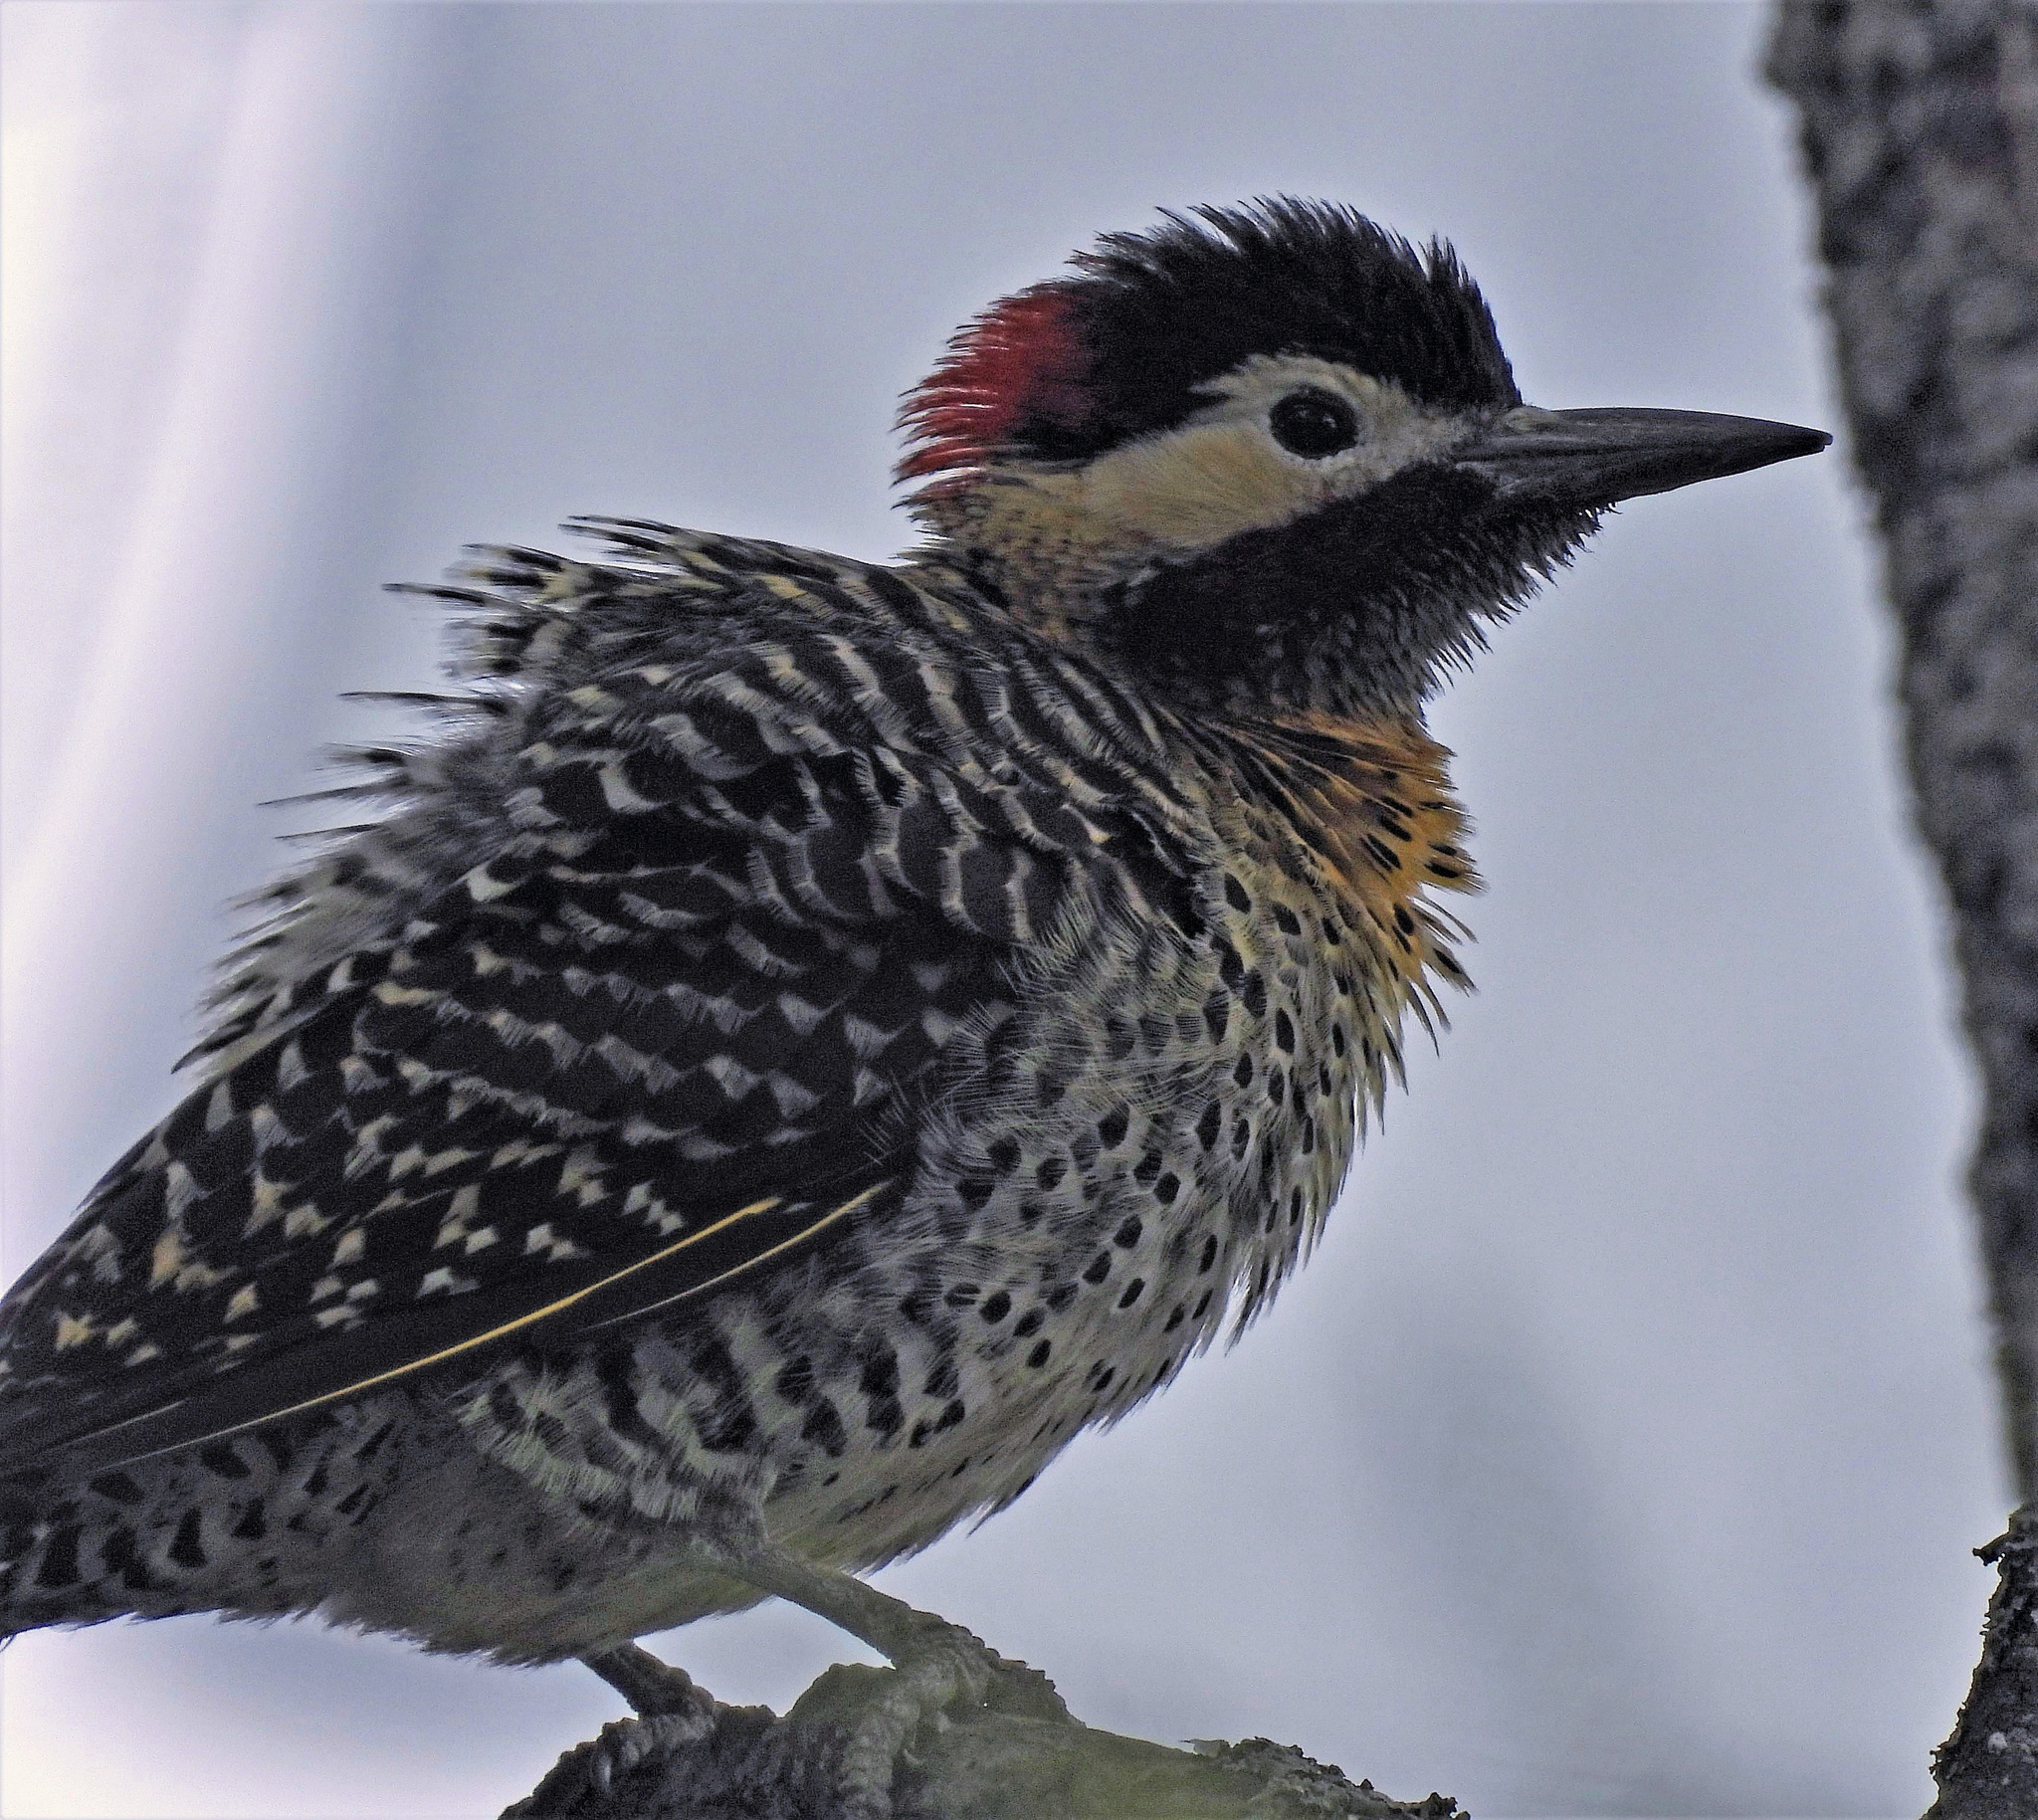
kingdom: Animalia
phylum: Chordata
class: Aves
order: Piciformes
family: Picidae
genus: Colaptes
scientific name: Colaptes melanochloros
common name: Green-barred woodpecker
